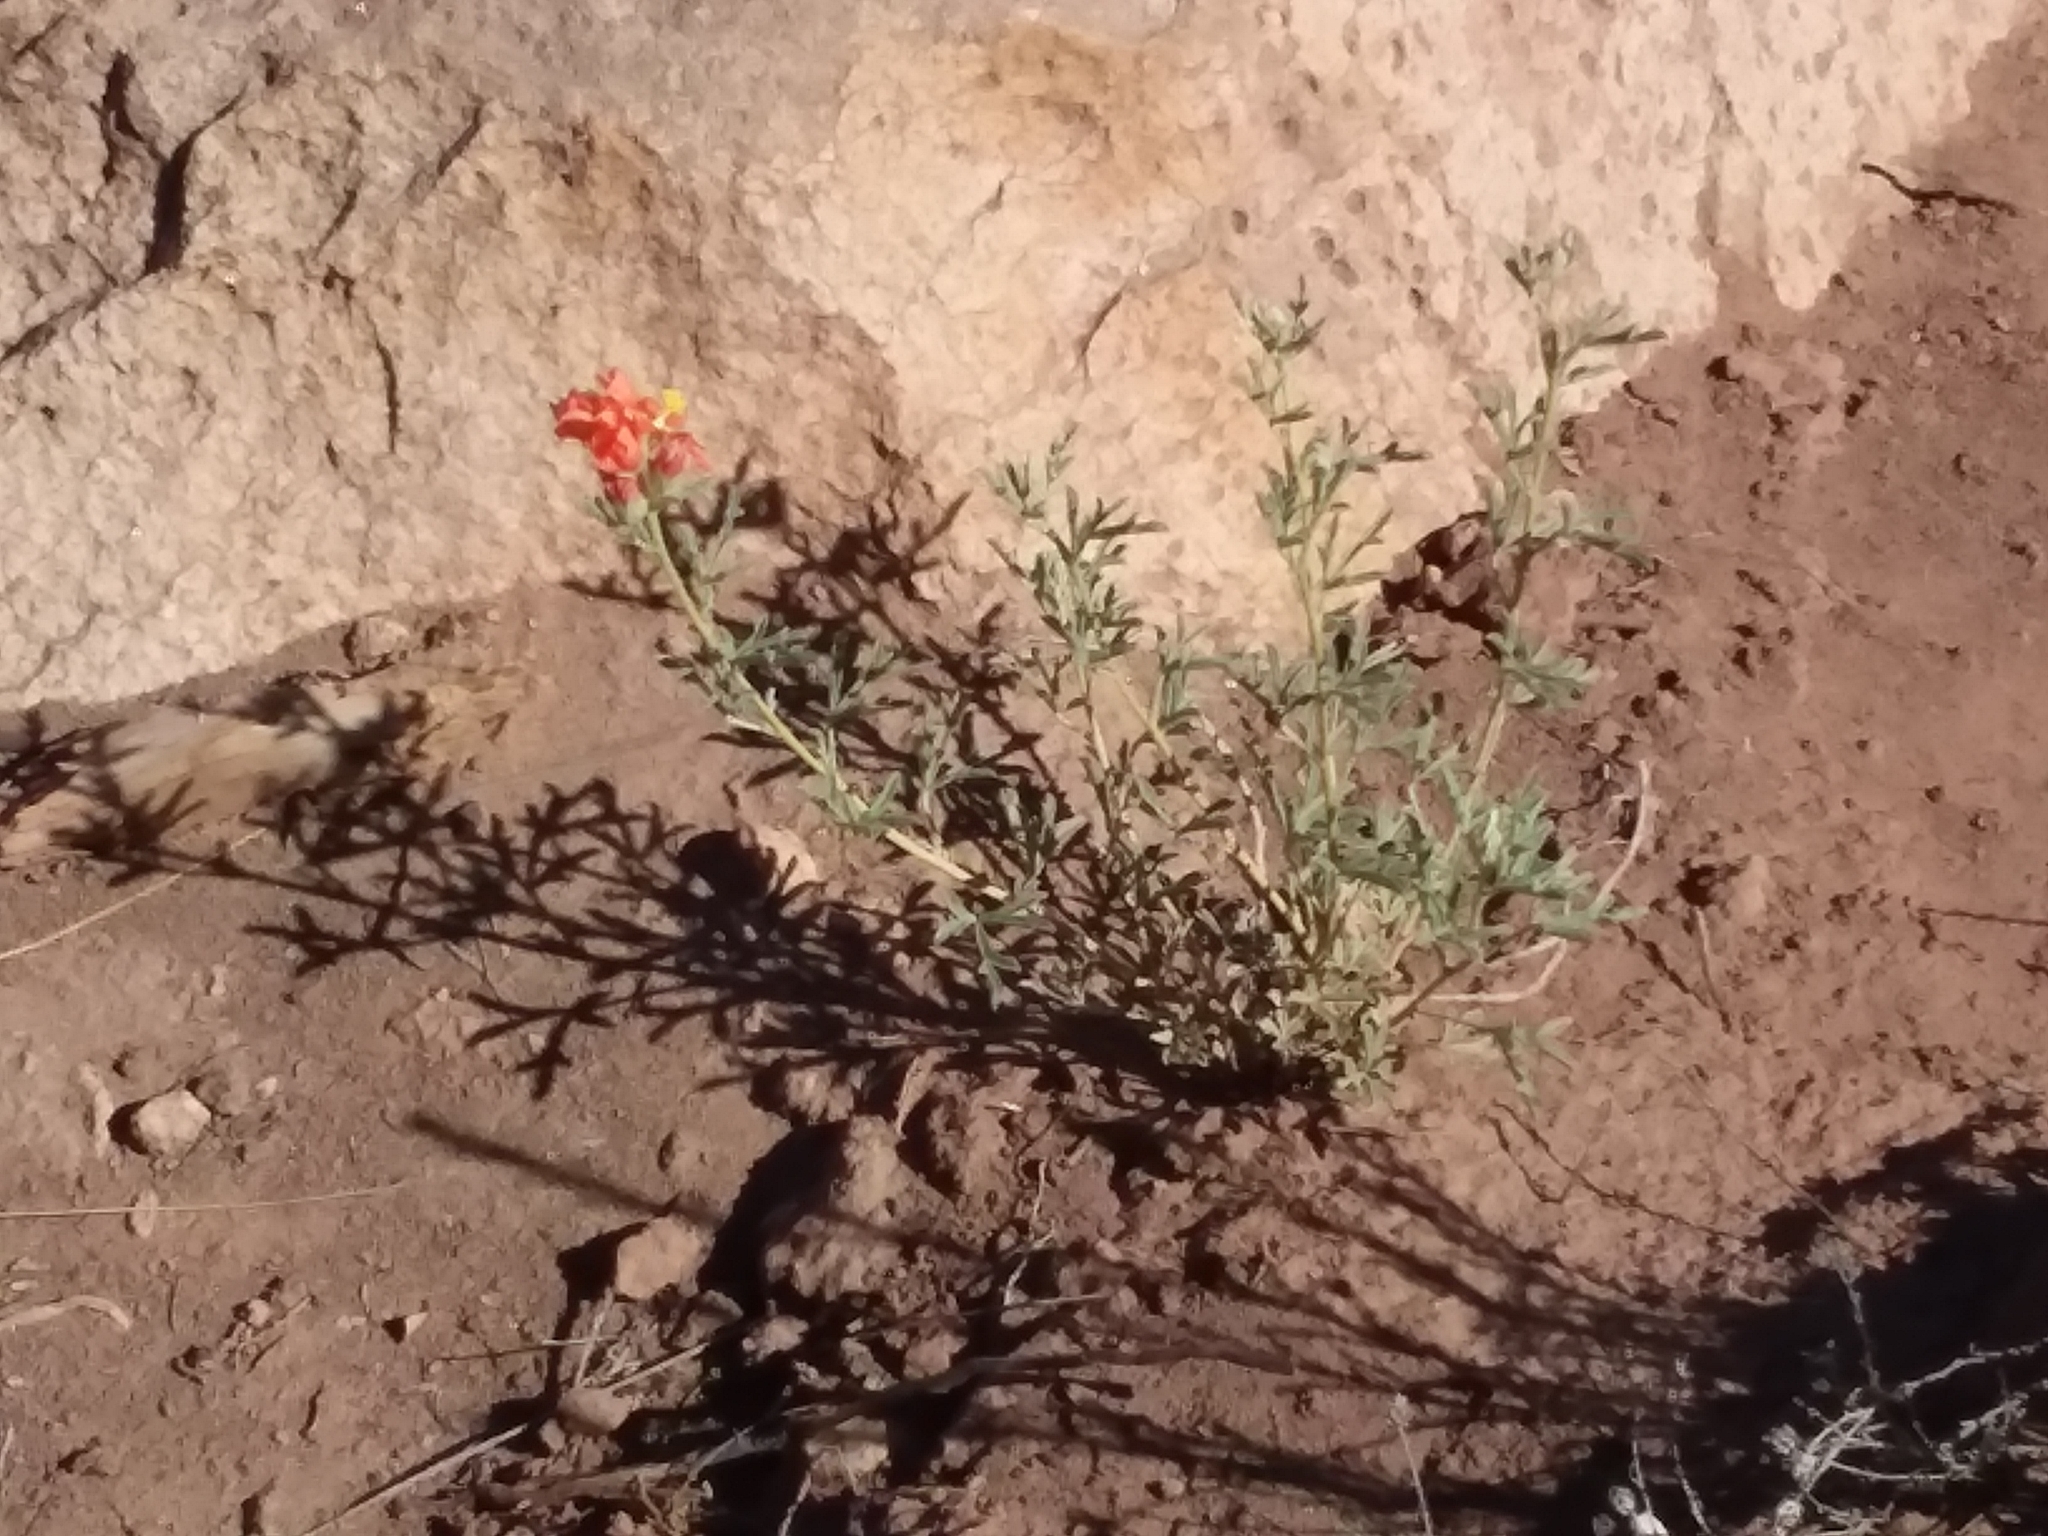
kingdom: Plantae
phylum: Tracheophyta
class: Magnoliopsida
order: Malvales
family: Malvaceae
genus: Sphaeralcea
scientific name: Sphaeralcea coccinea
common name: Moss-rose
